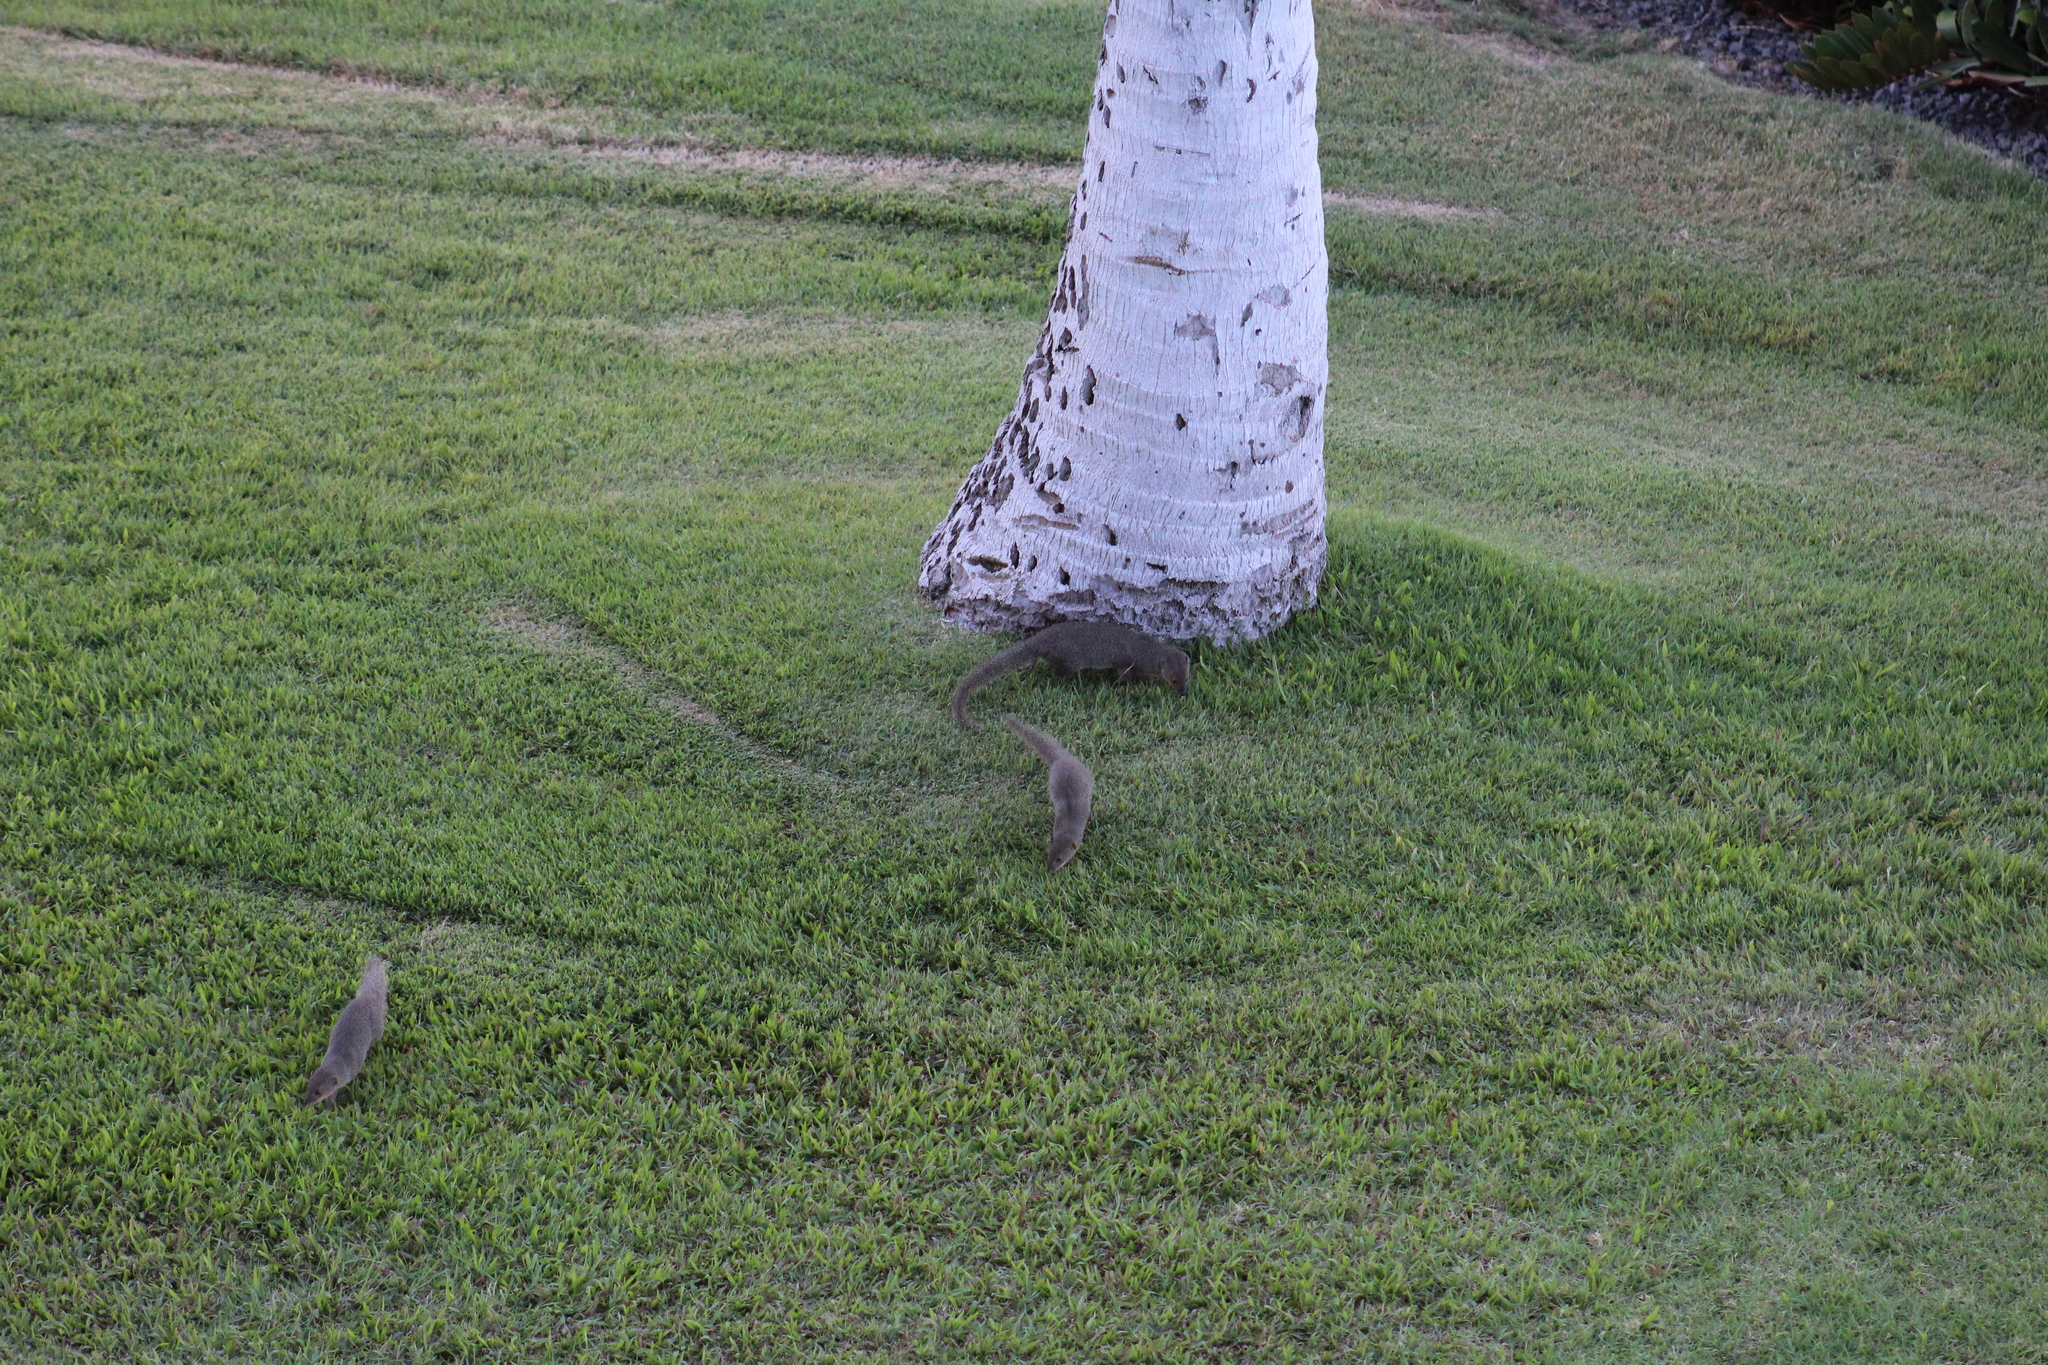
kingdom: Animalia
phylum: Chordata
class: Mammalia
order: Carnivora
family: Herpestidae
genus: Herpestes
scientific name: Herpestes javanicus
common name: Small asian mongoose
